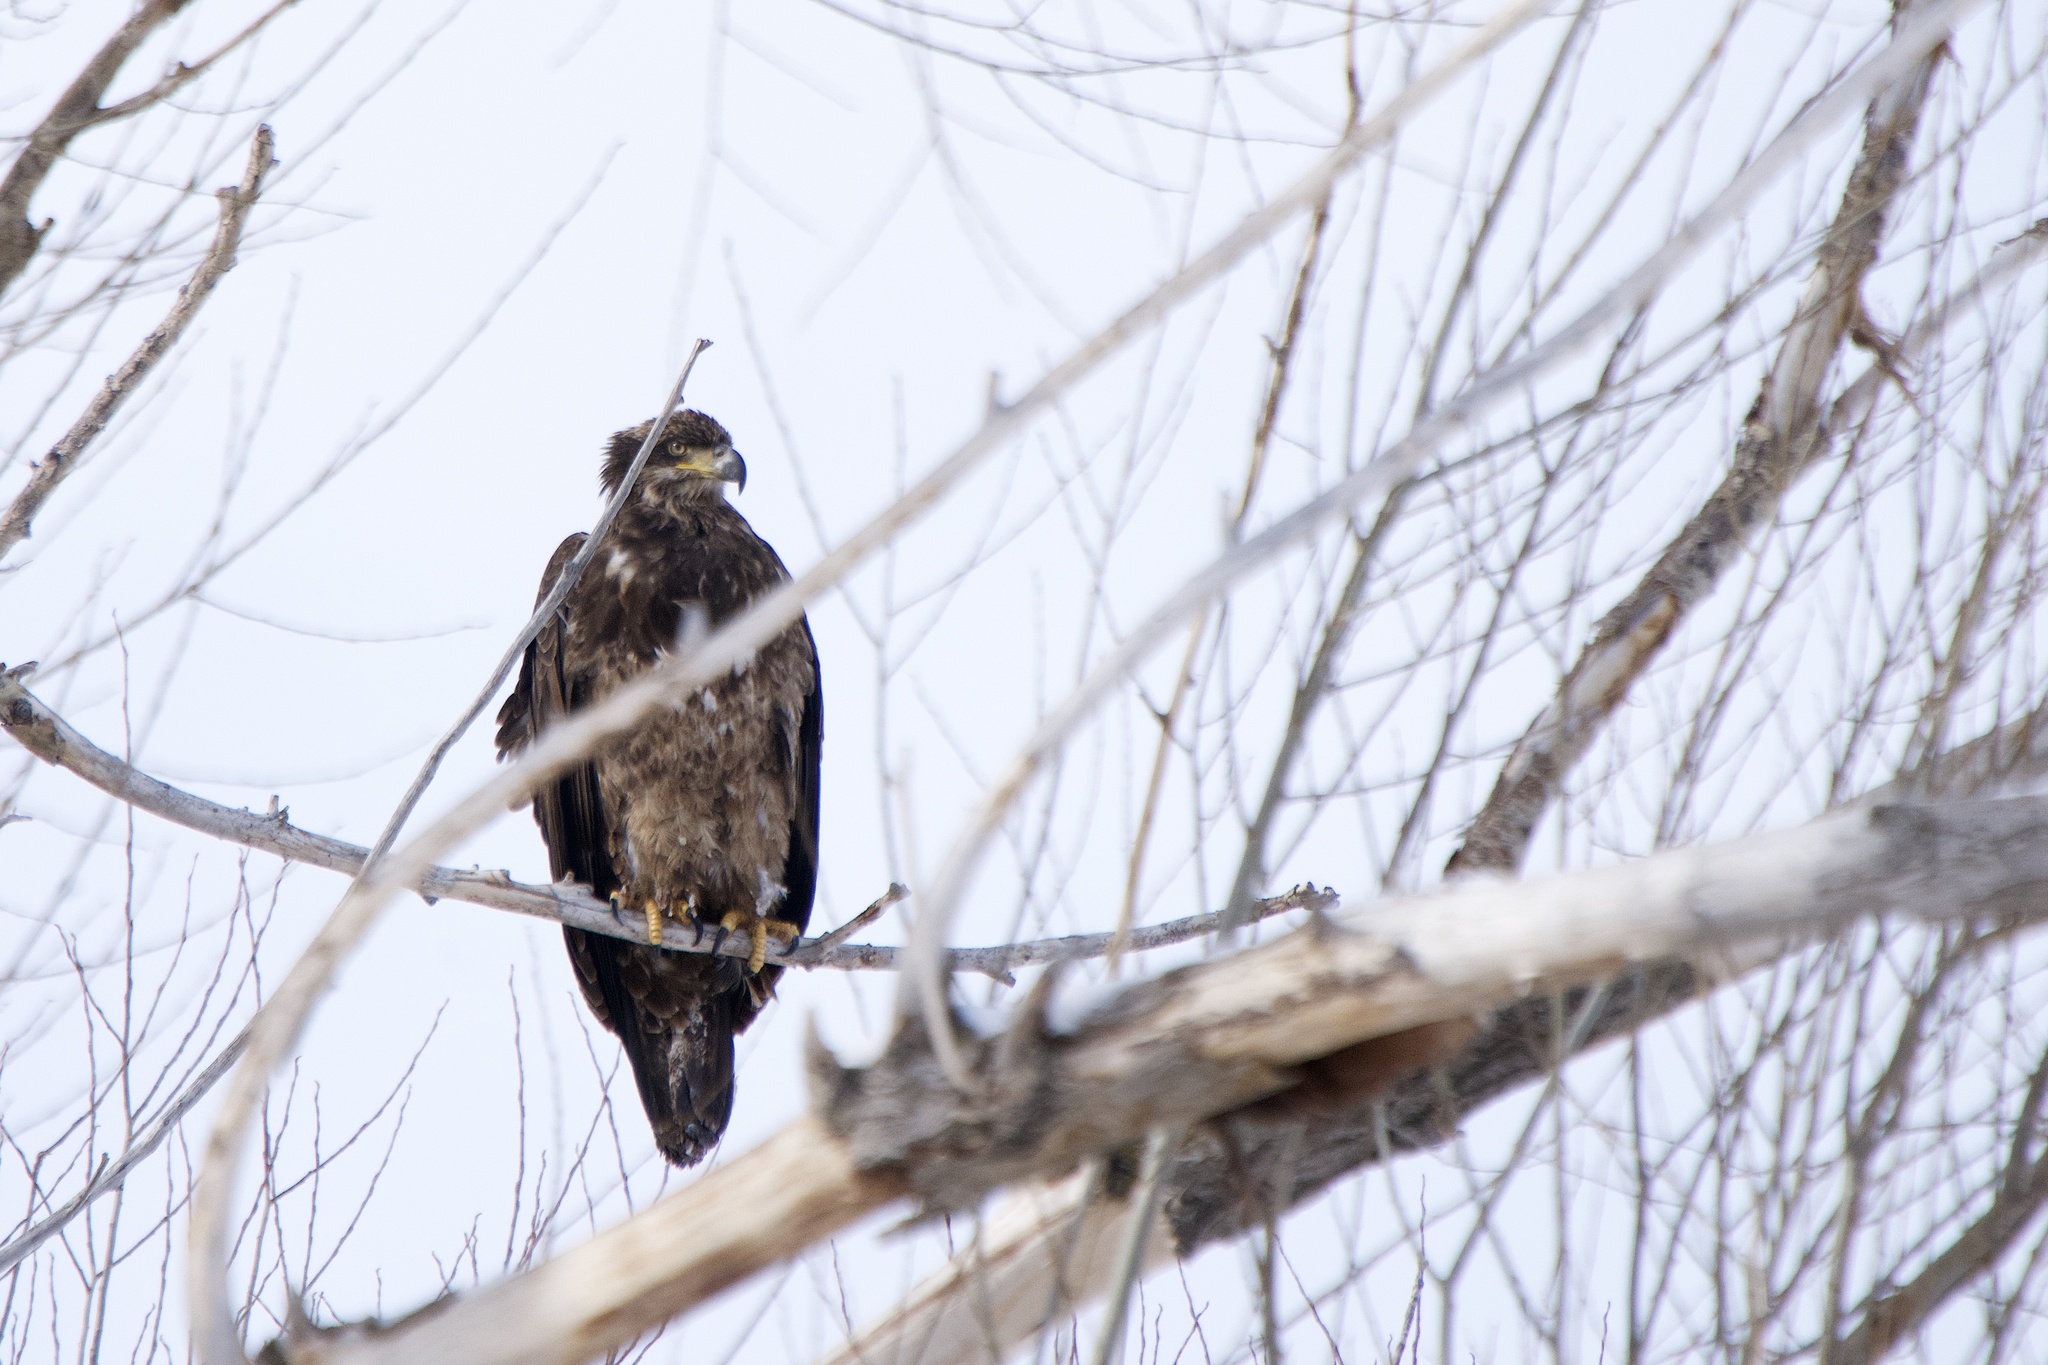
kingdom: Animalia
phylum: Chordata
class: Aves
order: Accipitriformes
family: Accipitridae
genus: Haliaeetus
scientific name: Haliaeetus leucocephalus
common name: Bald eagle
